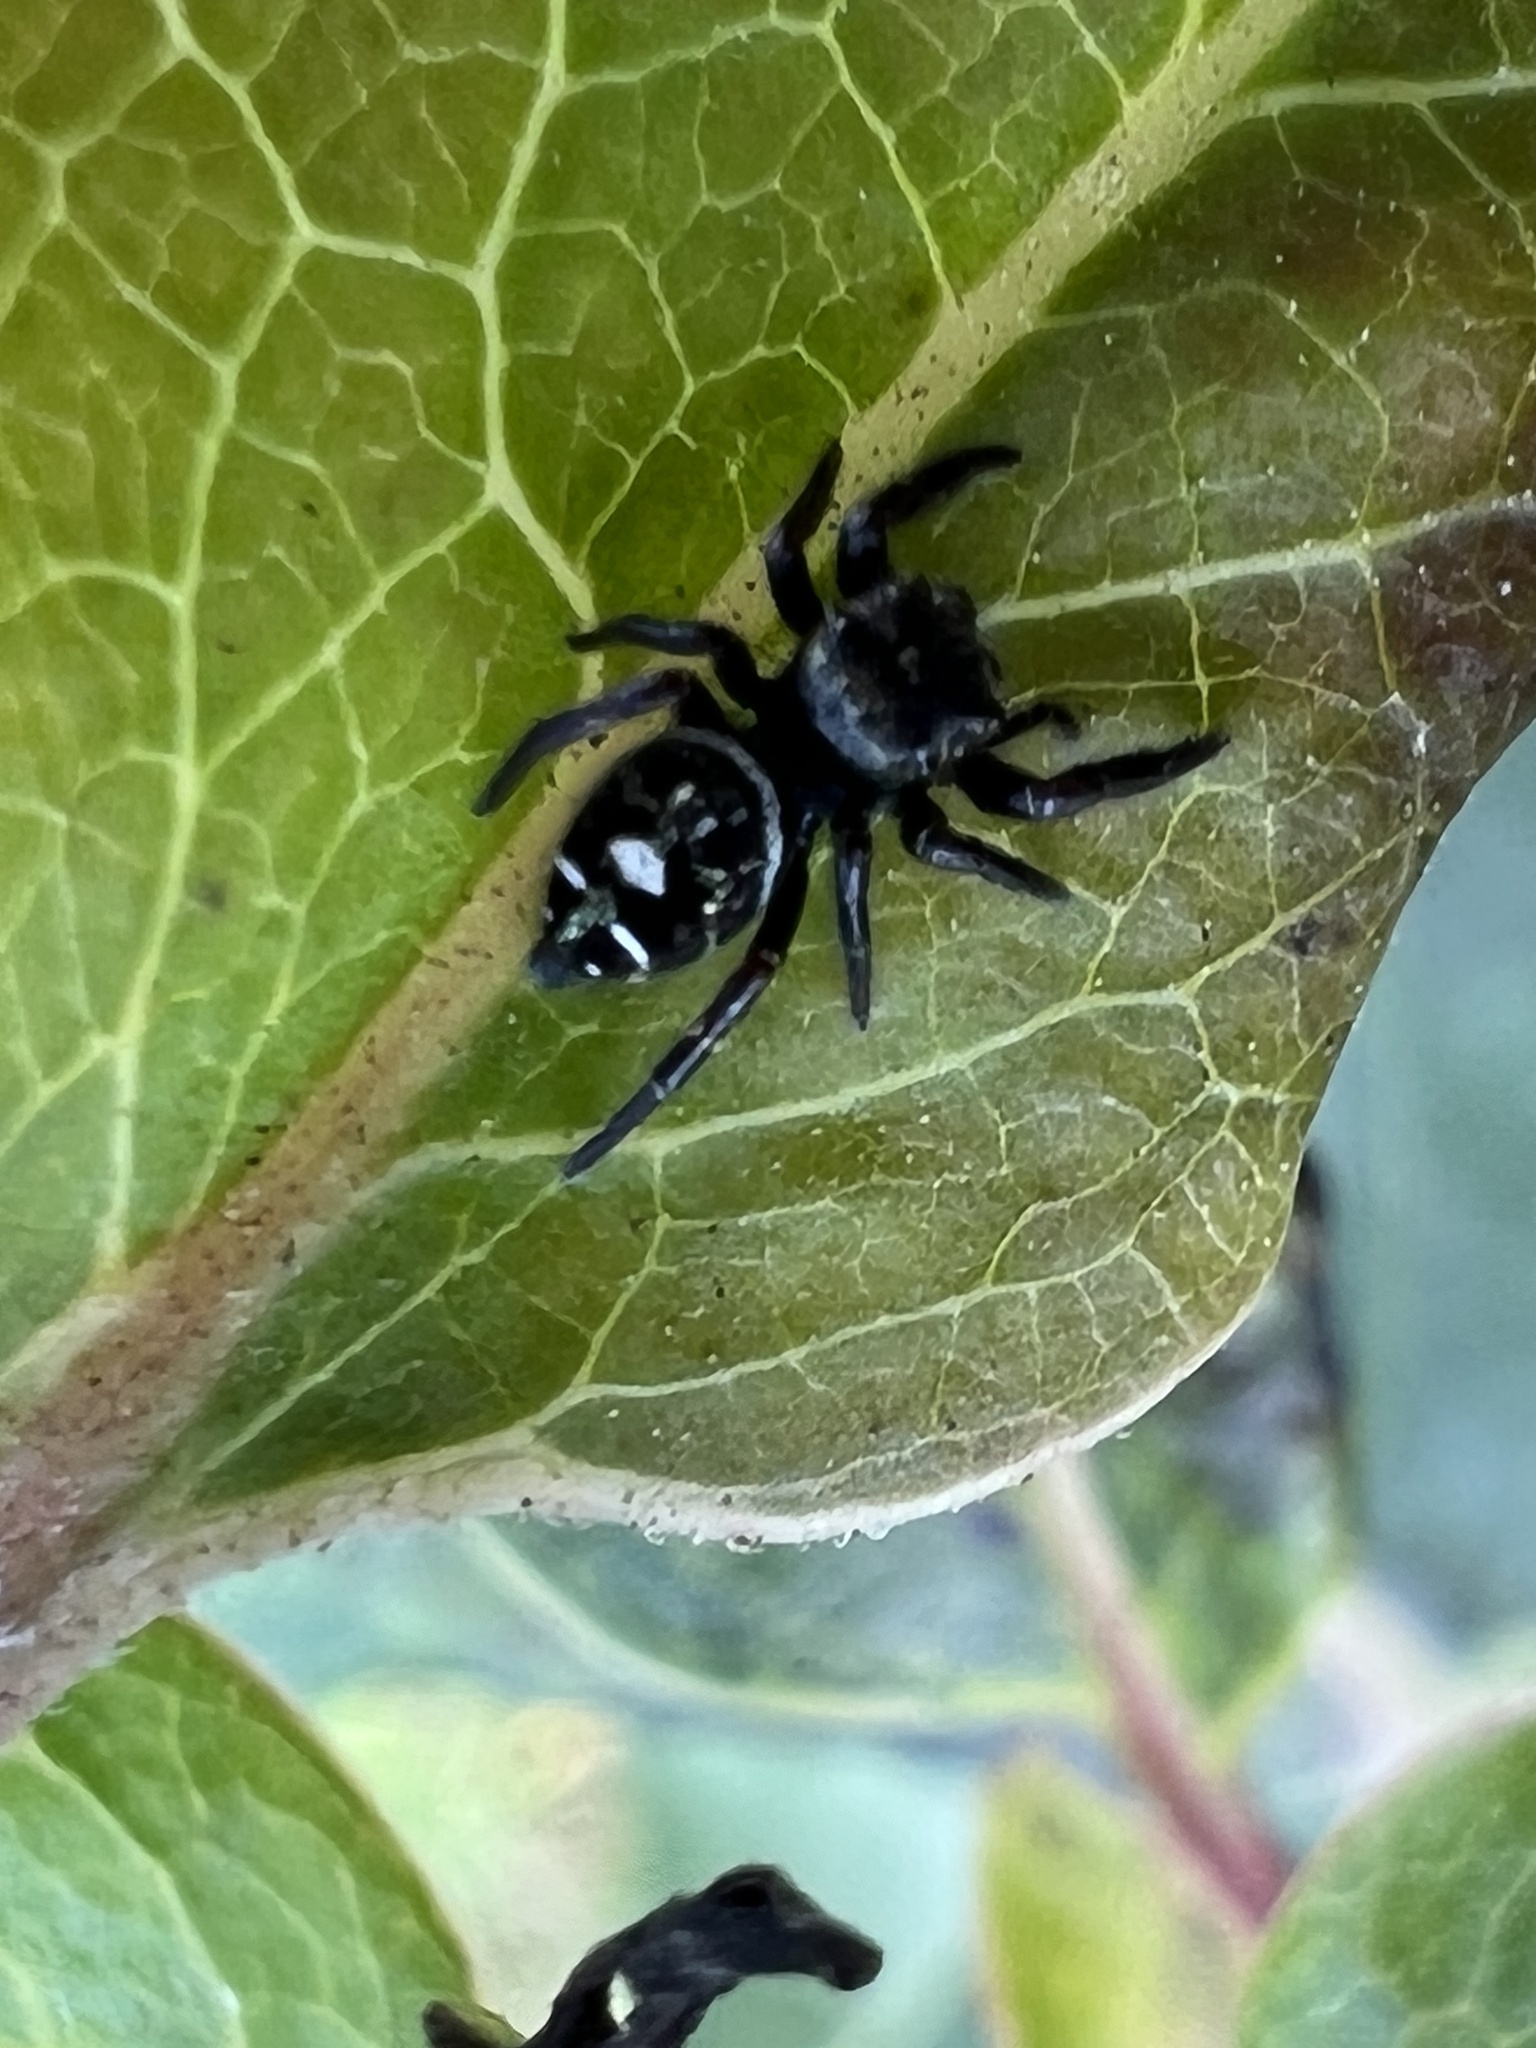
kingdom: Animalia
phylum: Arthropoda
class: Arachnida
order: Araneae
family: Salticidae
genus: Phidippus
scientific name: Phidippus audax
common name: Bold jumper
